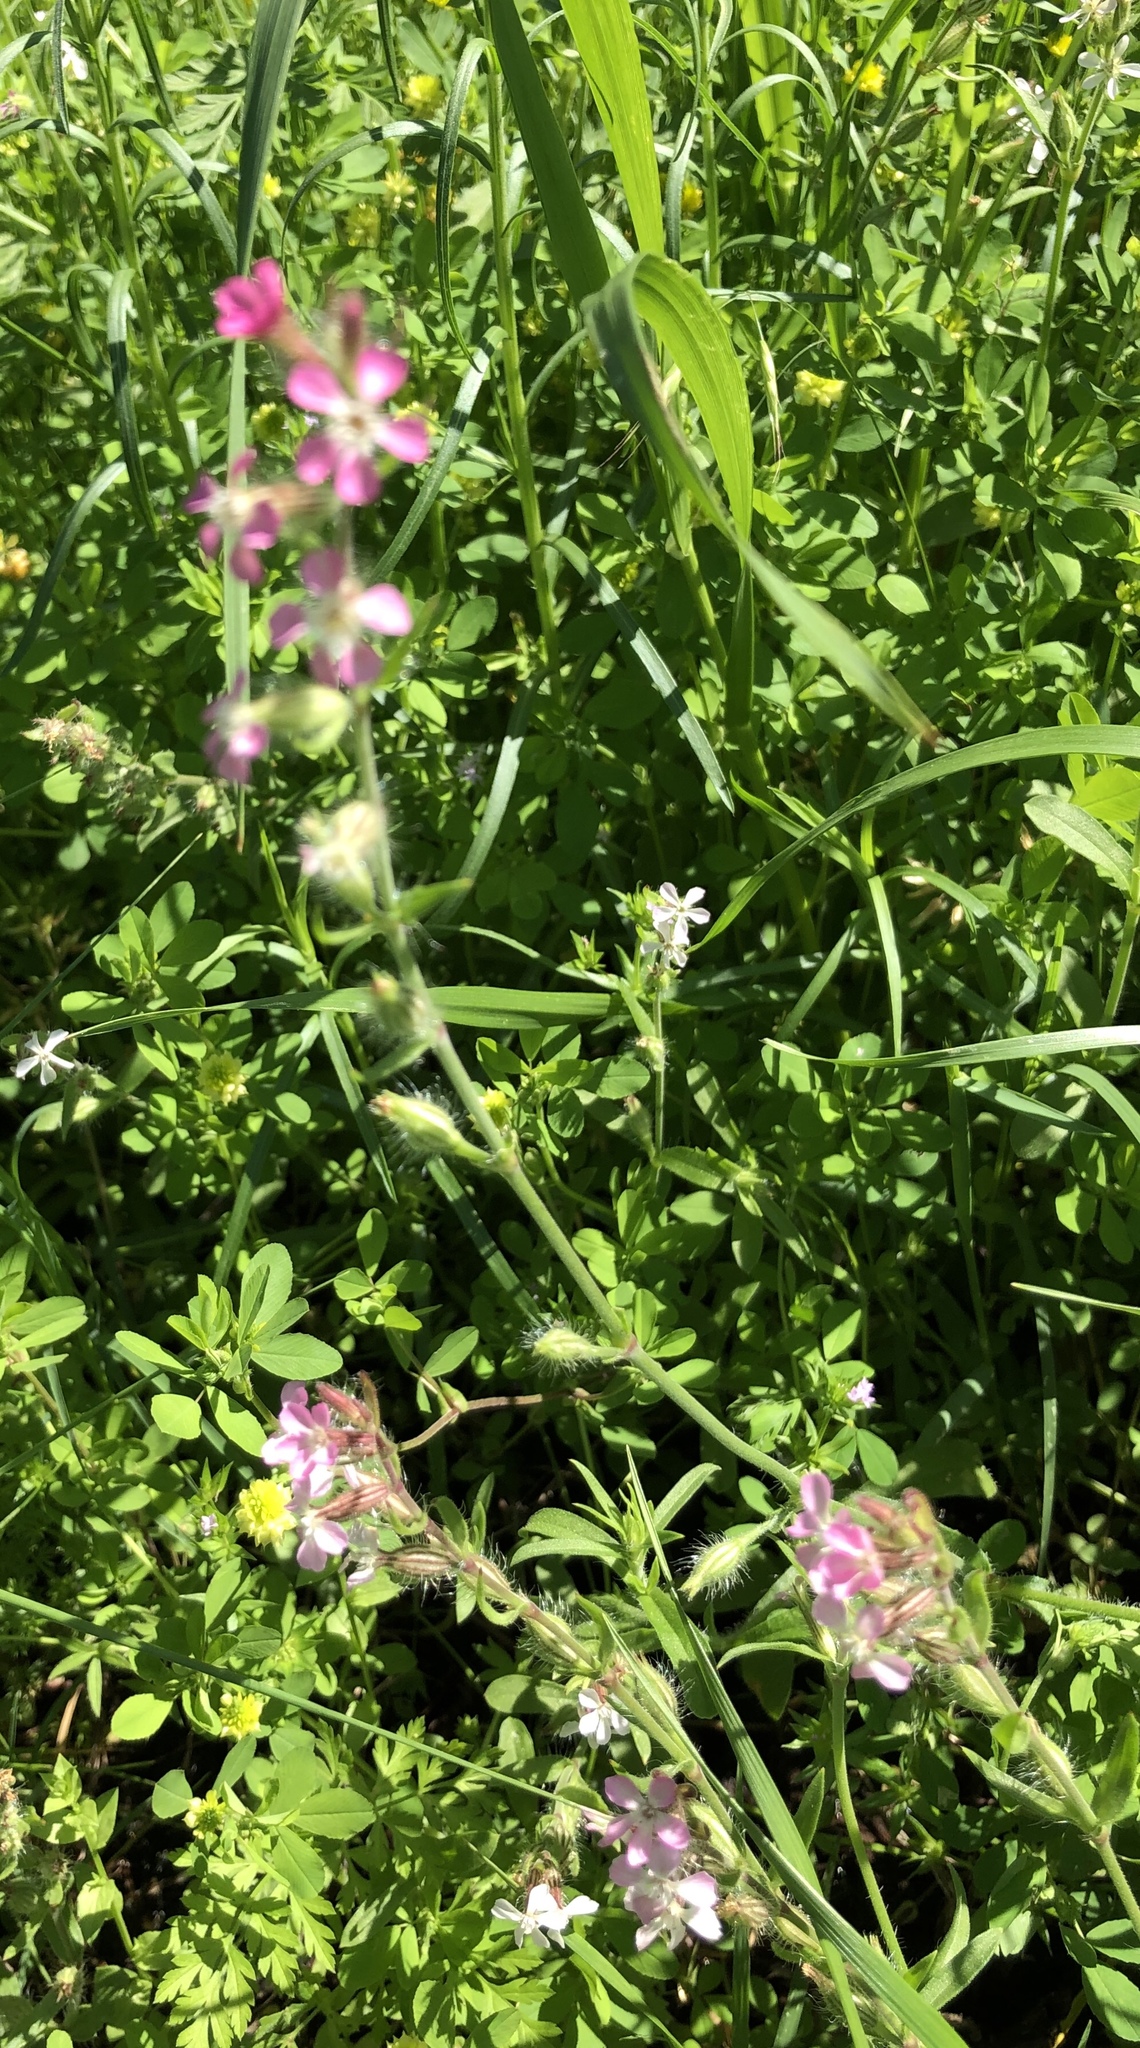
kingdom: Plantae
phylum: Tracheophyta
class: Magnoliopsida
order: Caryophyllales
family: Caryophyllaceae
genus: Silene
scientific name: Silene gallica
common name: Small-flowered catchfly
